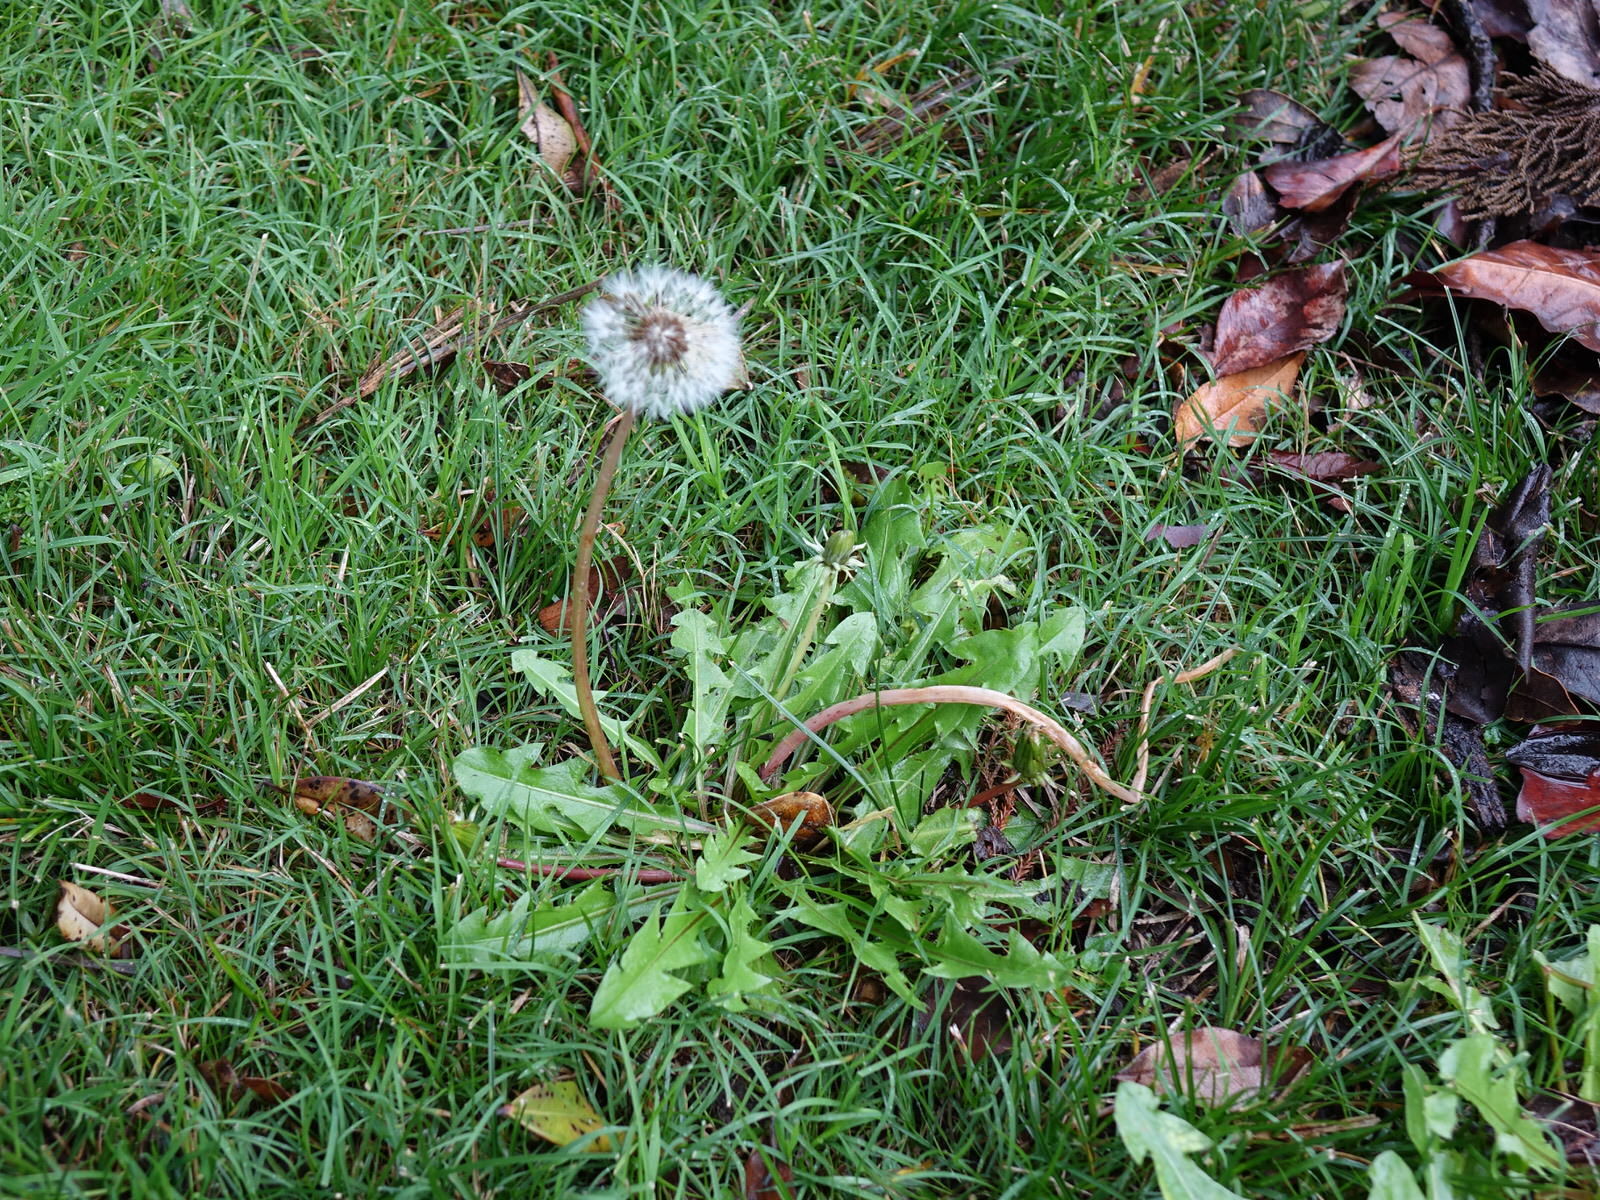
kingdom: Plantae
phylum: Tracheophyta
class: Magnoliopsida
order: Asterales
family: Asteraceae
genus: Taraxacum
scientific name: Taraxacum officinale
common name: Common dandelion
